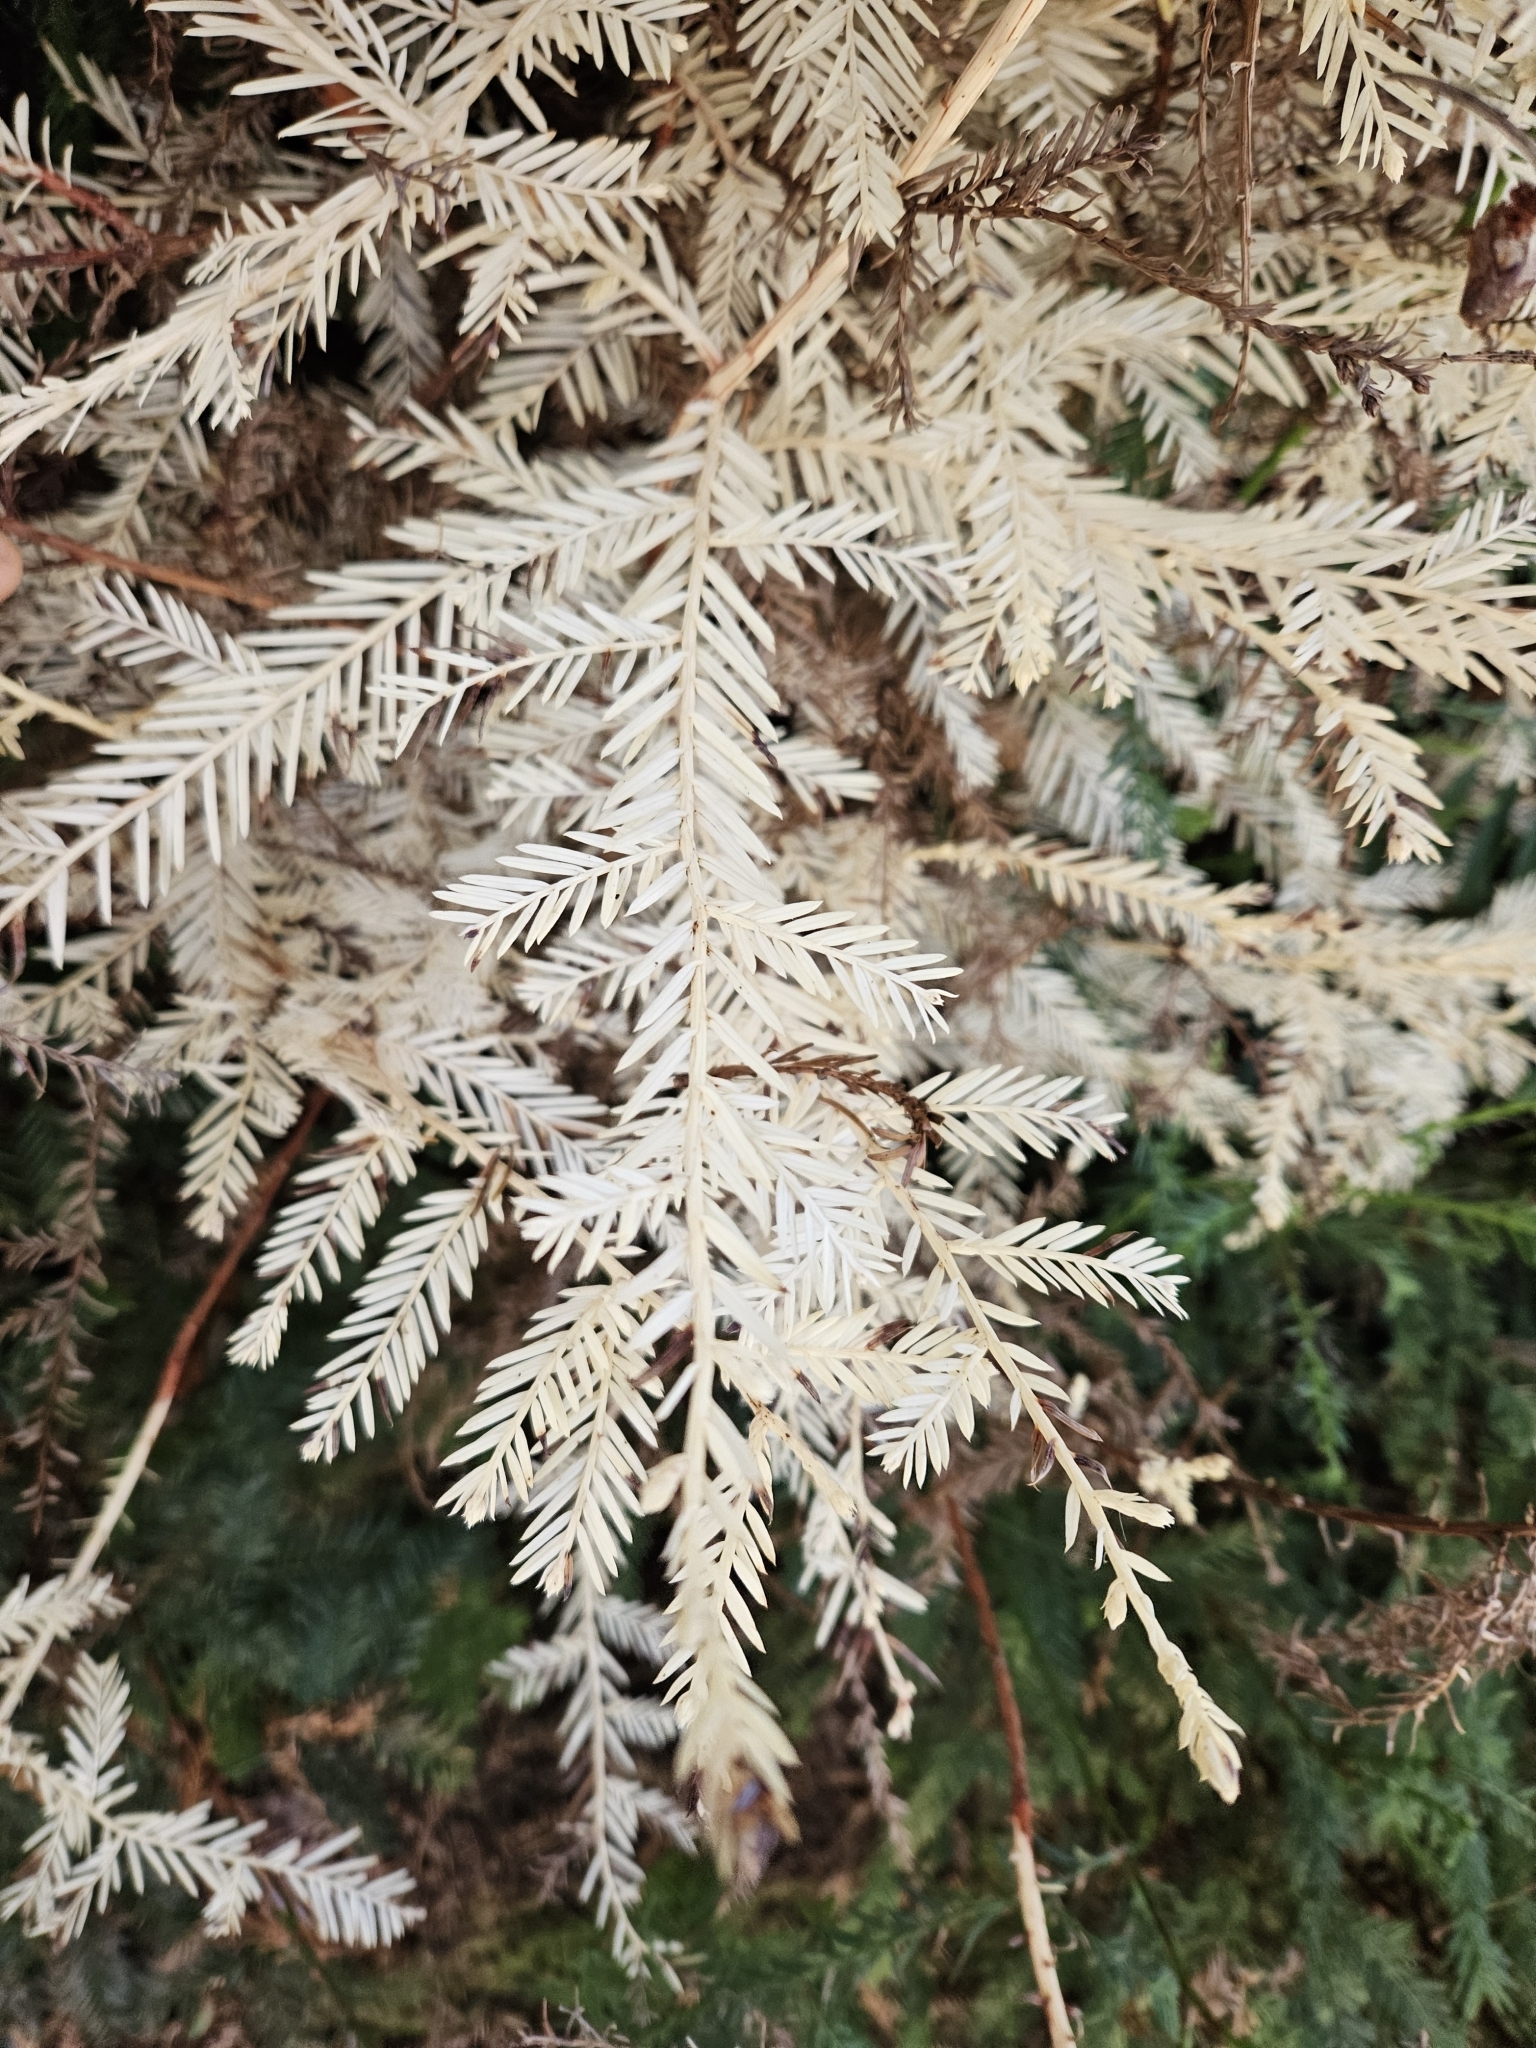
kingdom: Plantae
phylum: Tracheophyta
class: Pinopsida
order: Pinales
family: Cupressaceae
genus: Sequoia
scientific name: Sequoia sempervirens
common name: Coast redwood
